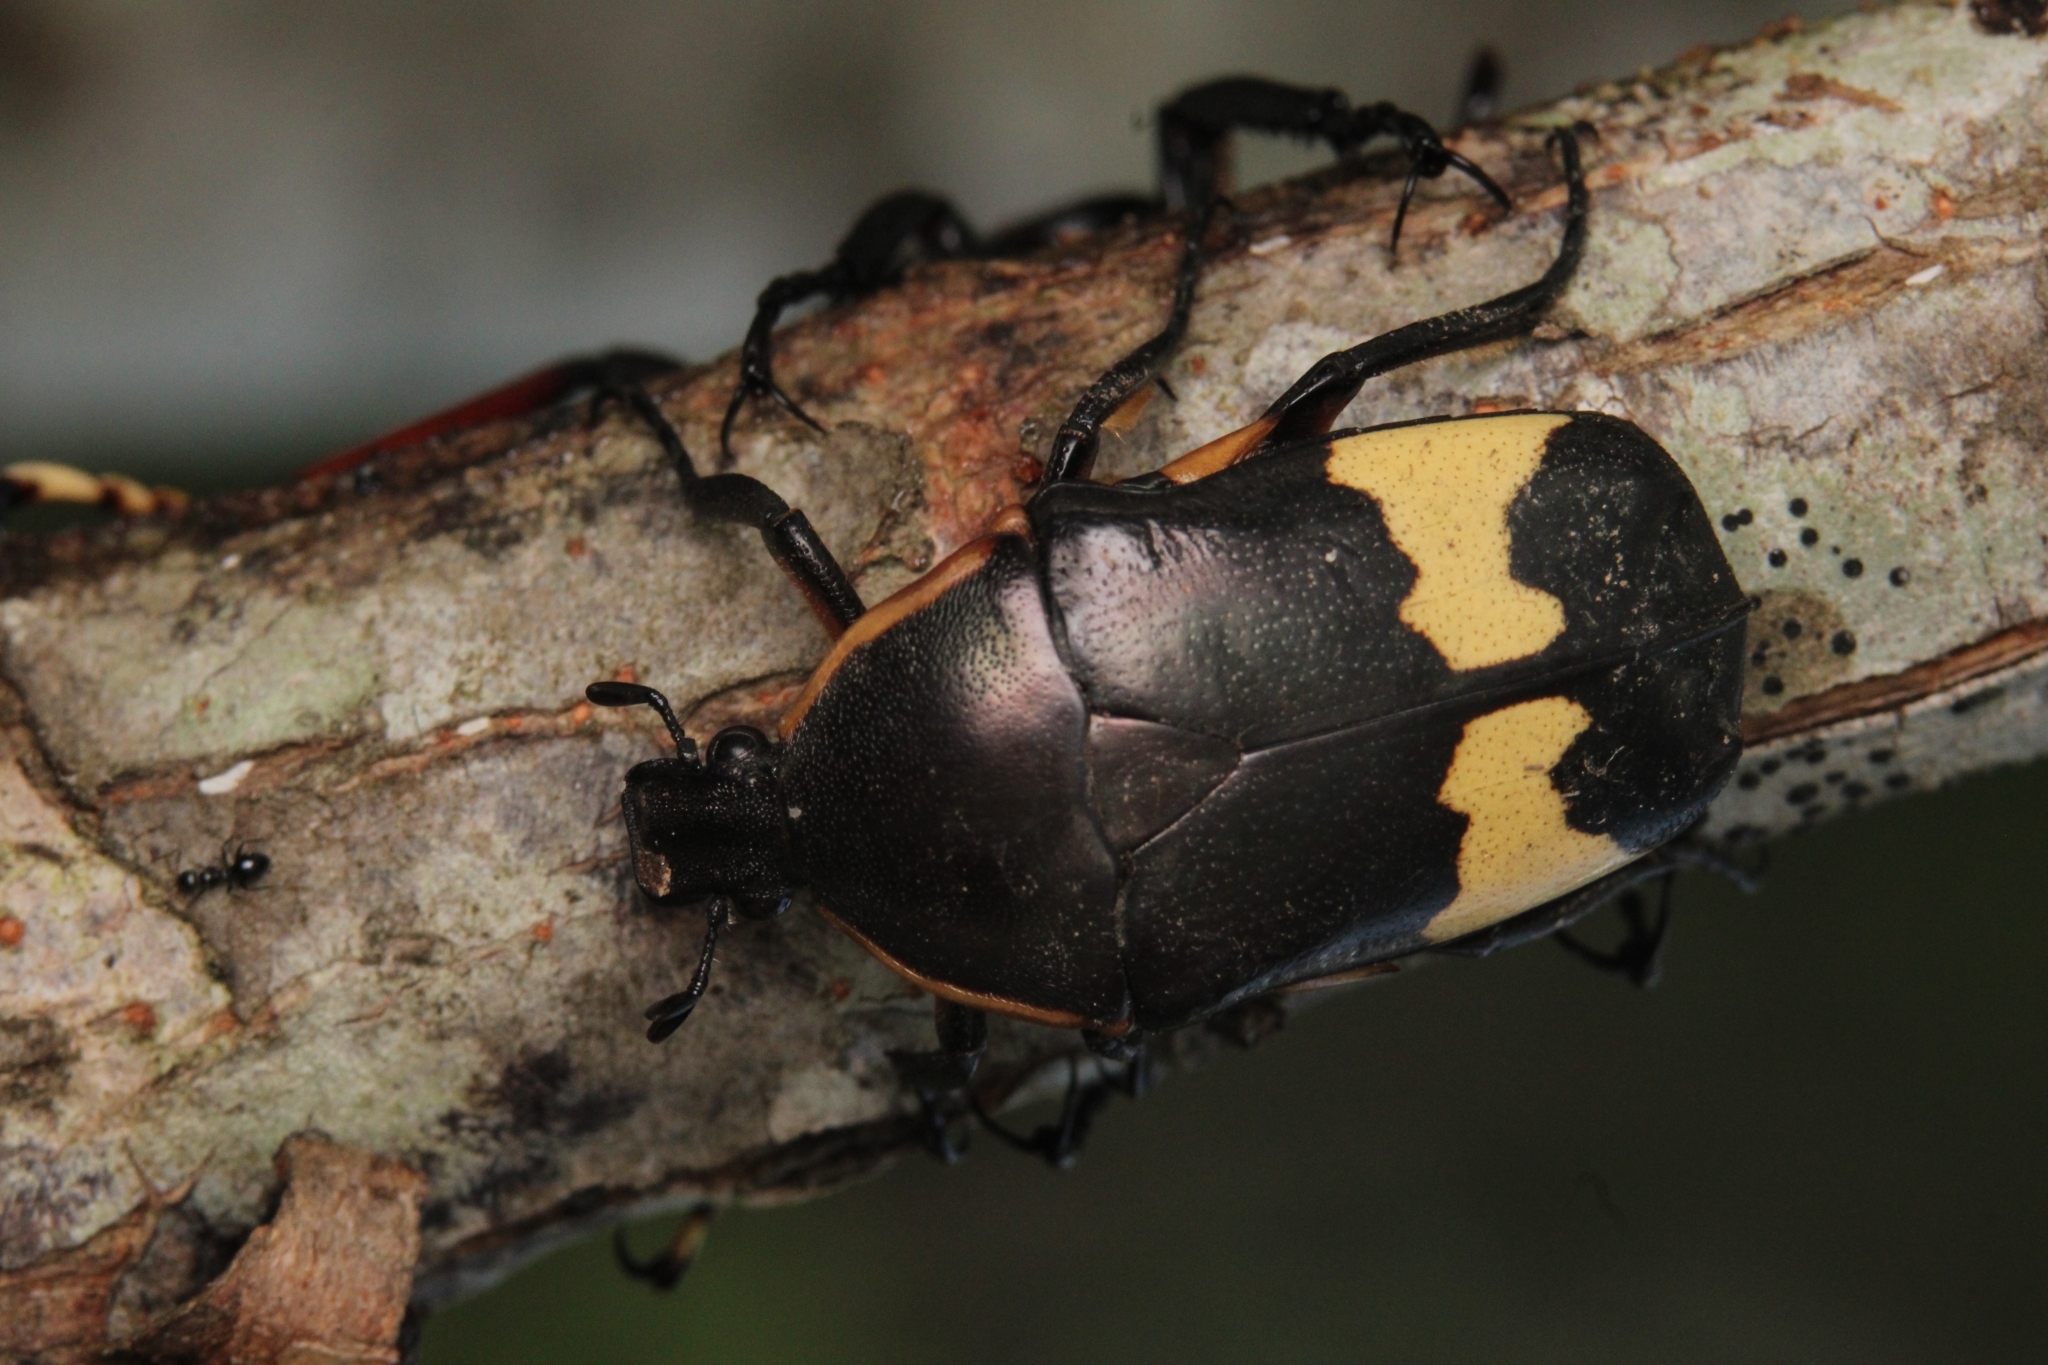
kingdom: Animalia
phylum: Arthropoda
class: Insecta
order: Coleoptera
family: Scarabaeidae
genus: Pedinorrhina
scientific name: Pedinorrhina
